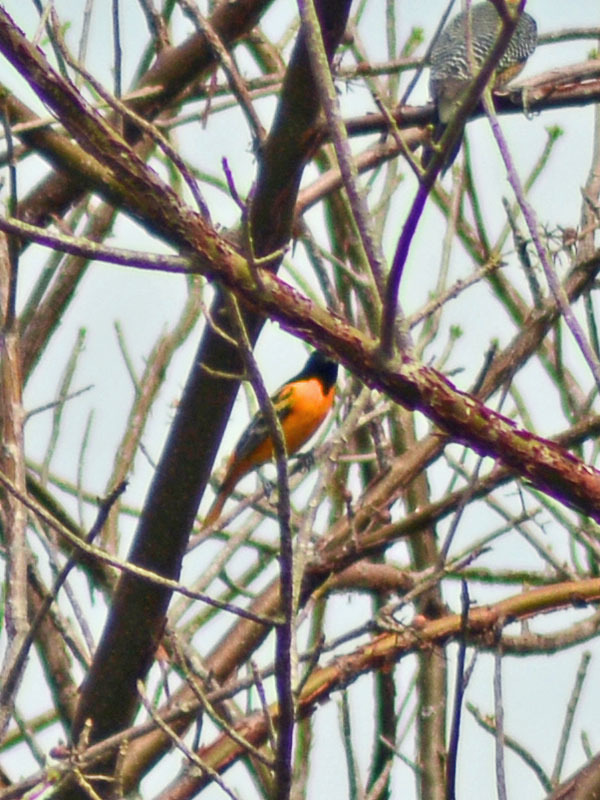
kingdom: Animalia
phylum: Chordata
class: Aves
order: Passeriformes
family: Icteridae
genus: Icterus
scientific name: Icterus galbula
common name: Baltimore oriole
